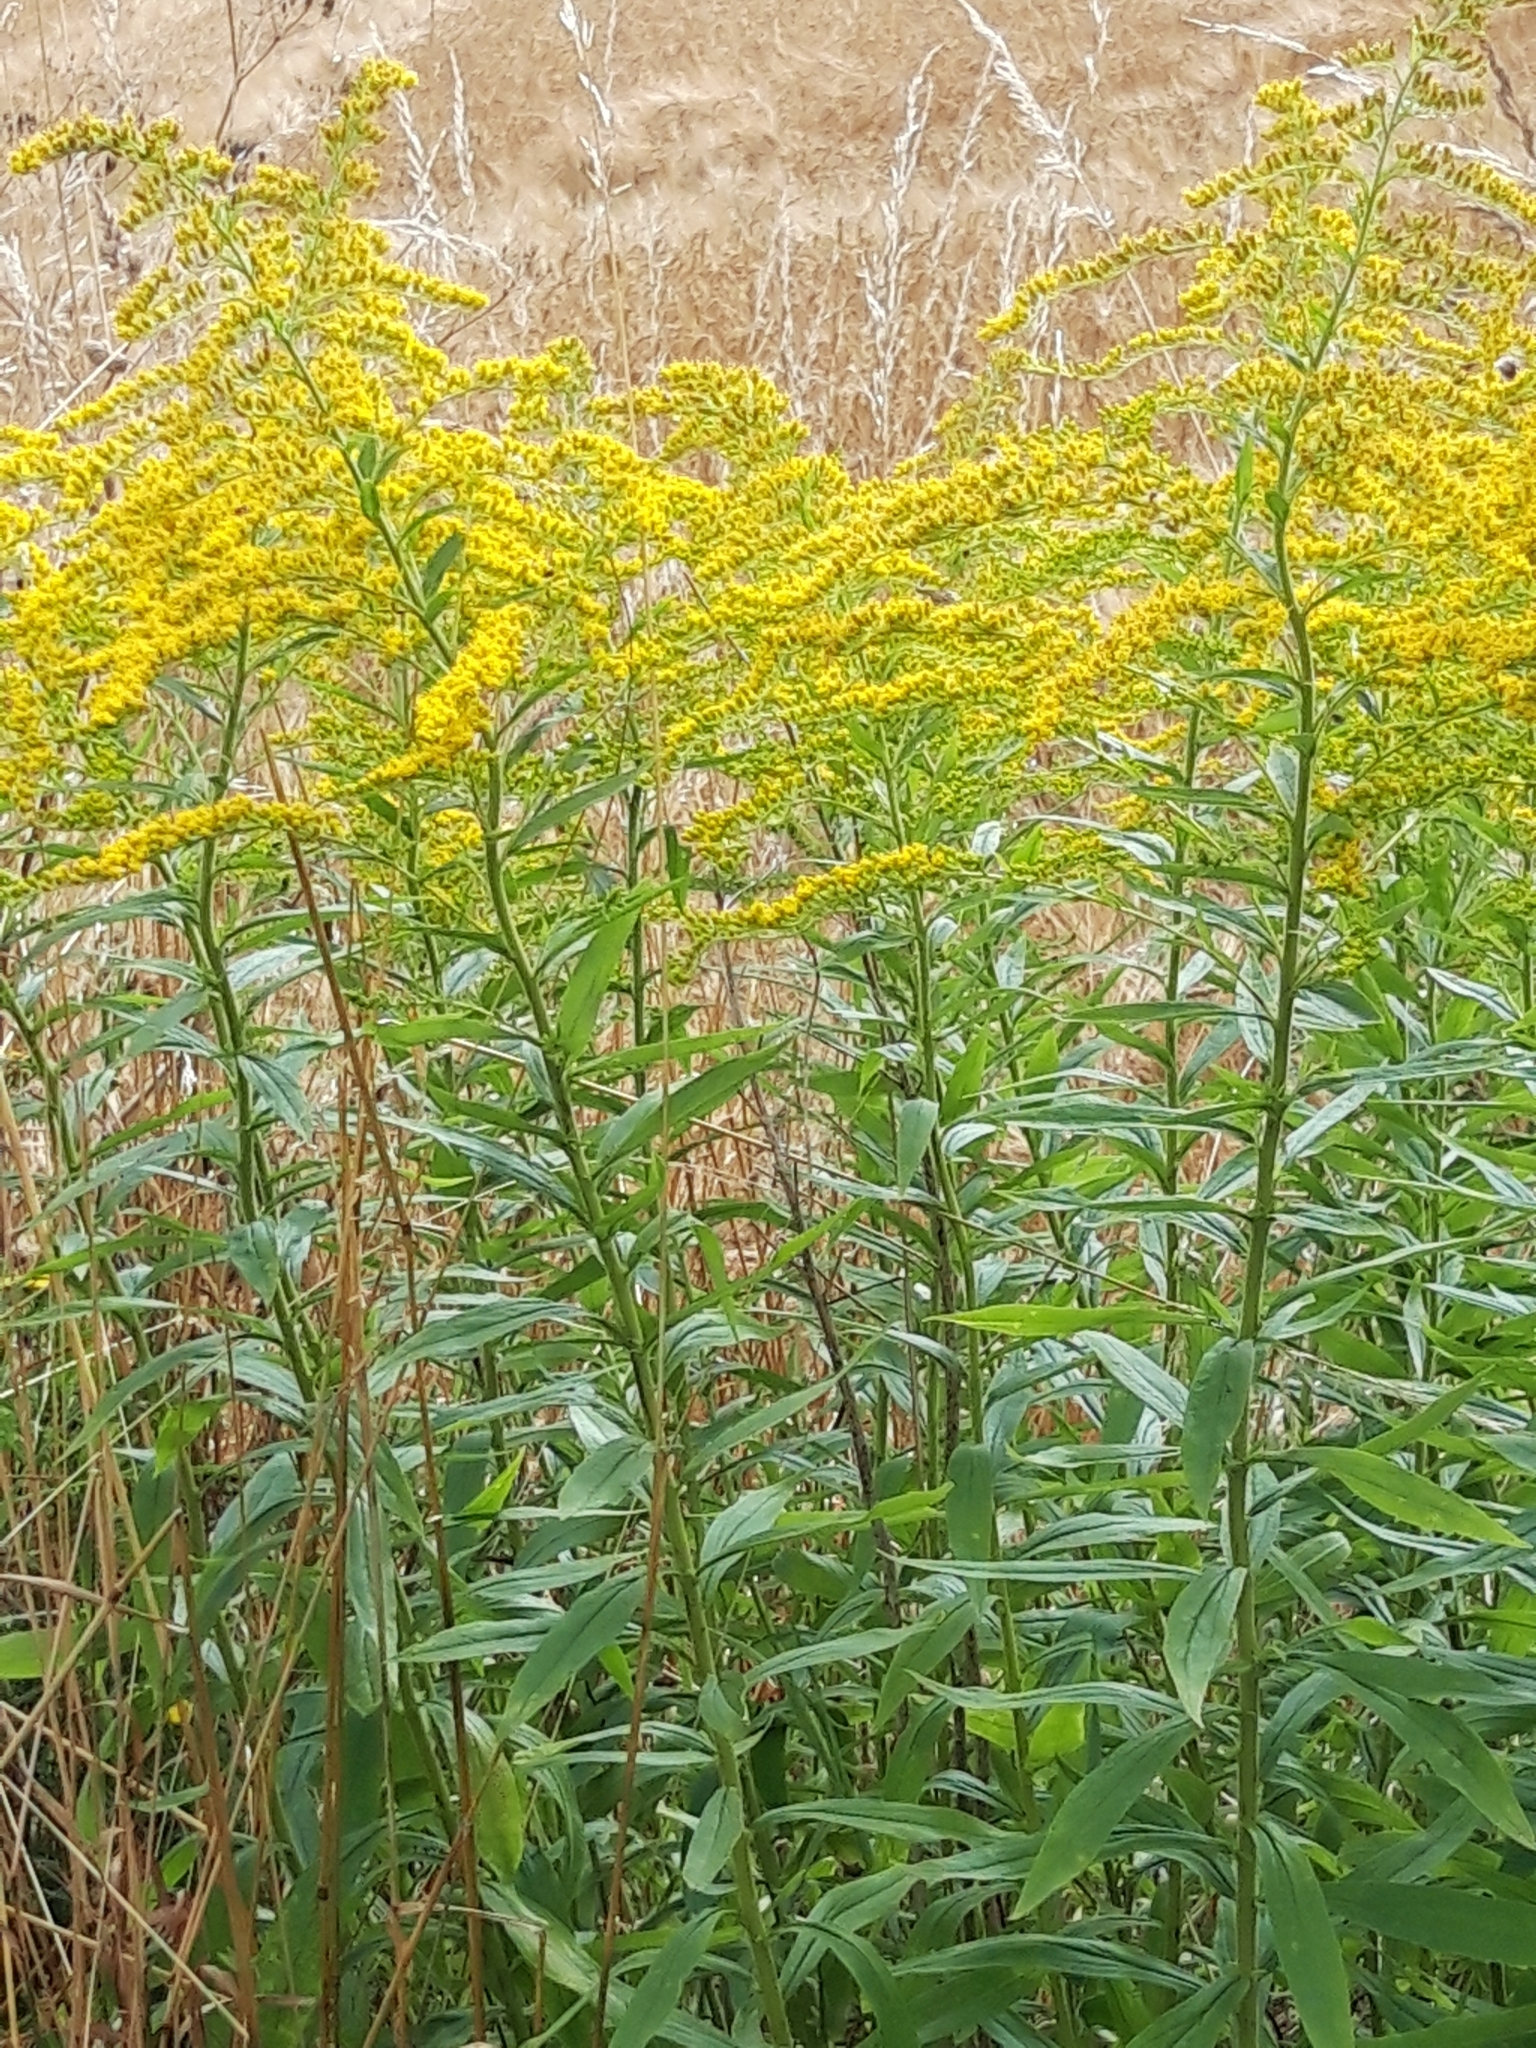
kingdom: Plantae
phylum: Tracheophyta
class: Magnoliopsida
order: Asterales
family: Asteraceae
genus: Solidago
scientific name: Solidago gigantea
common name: Giant goldenrod
